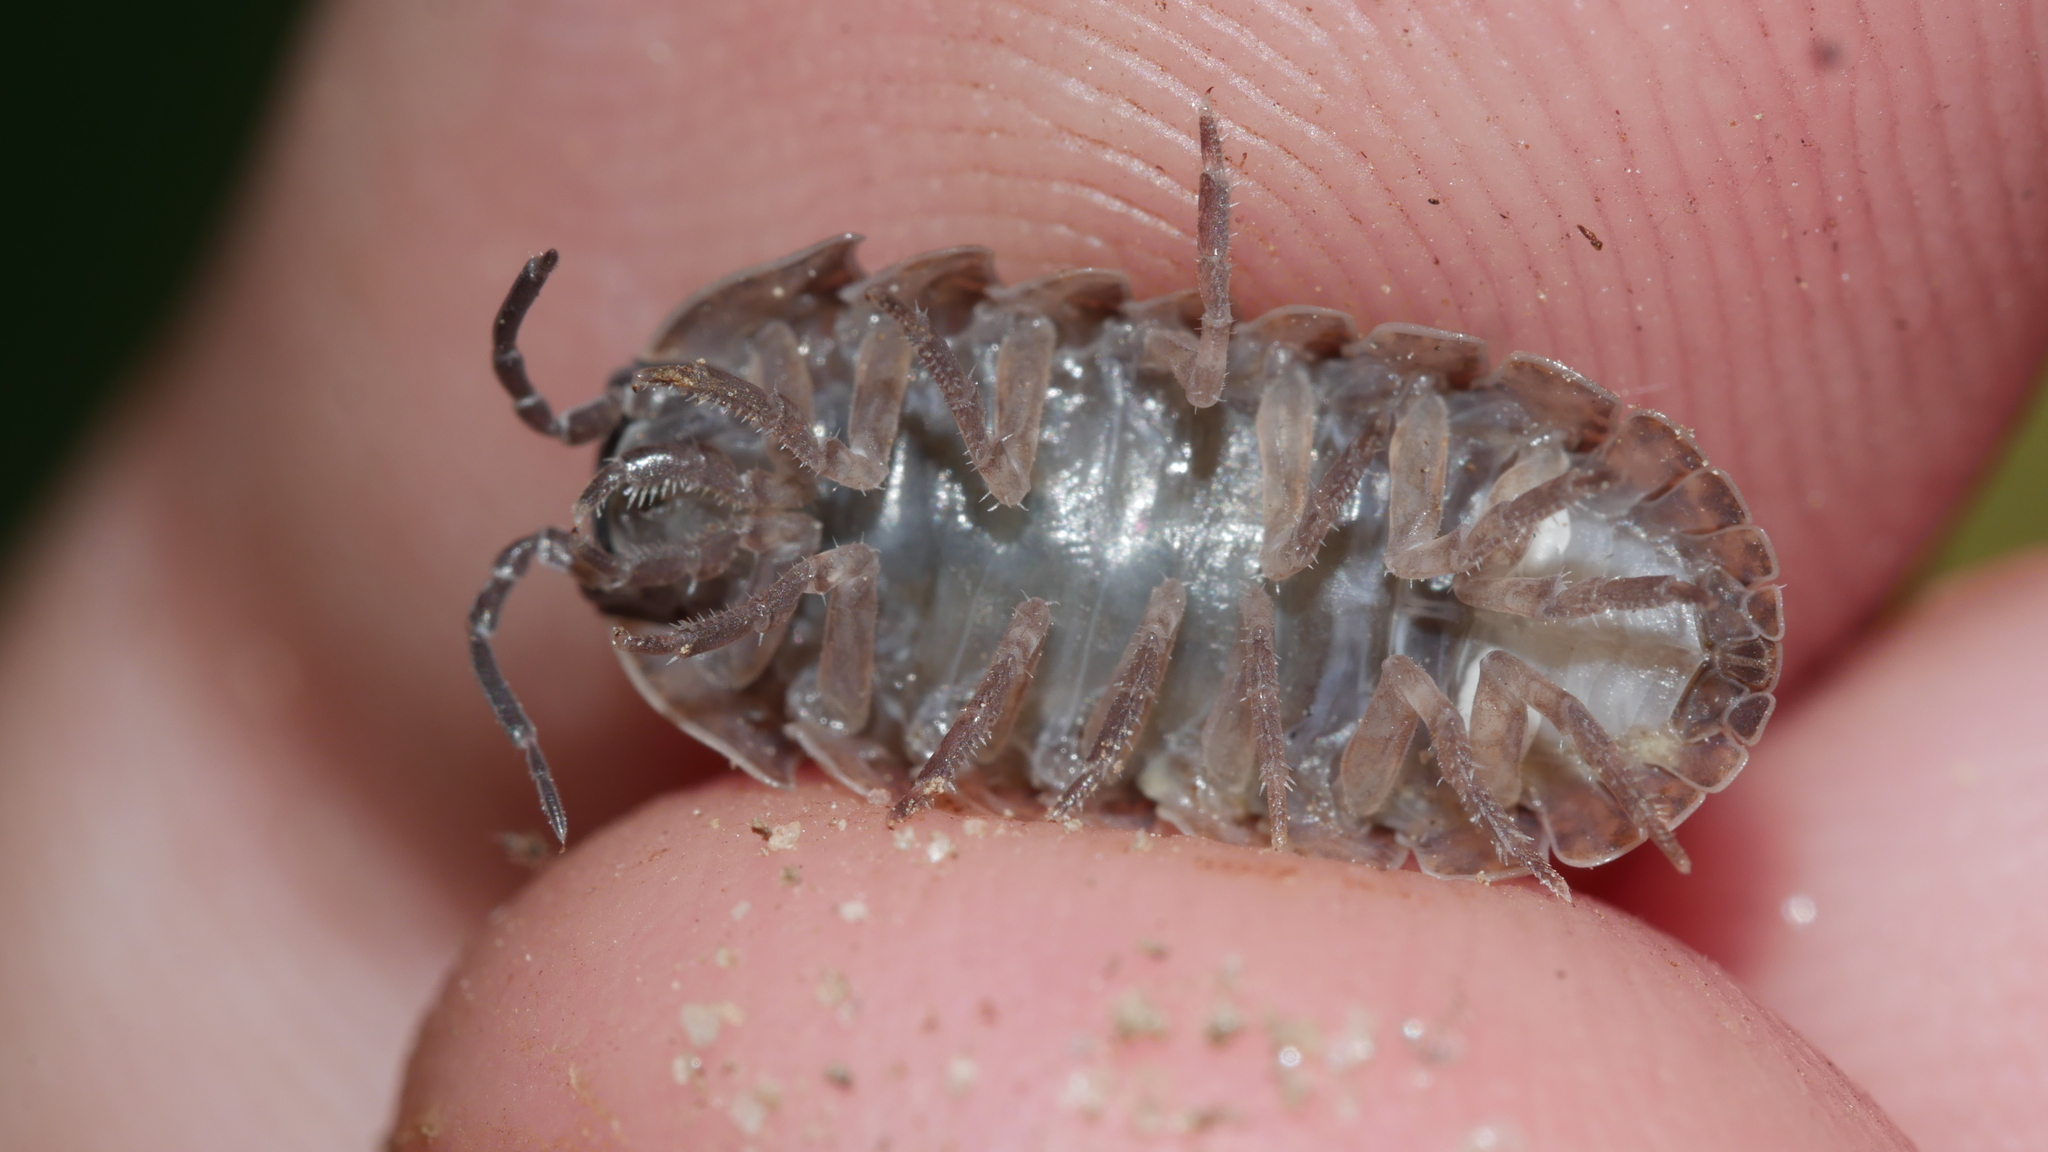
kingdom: Animalia
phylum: Arthropoda
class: Malacostraca
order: Isopoda
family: Armadillidiidae
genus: Armadillidium
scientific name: Armadillidium vulgare
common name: Common pill woodlouse
